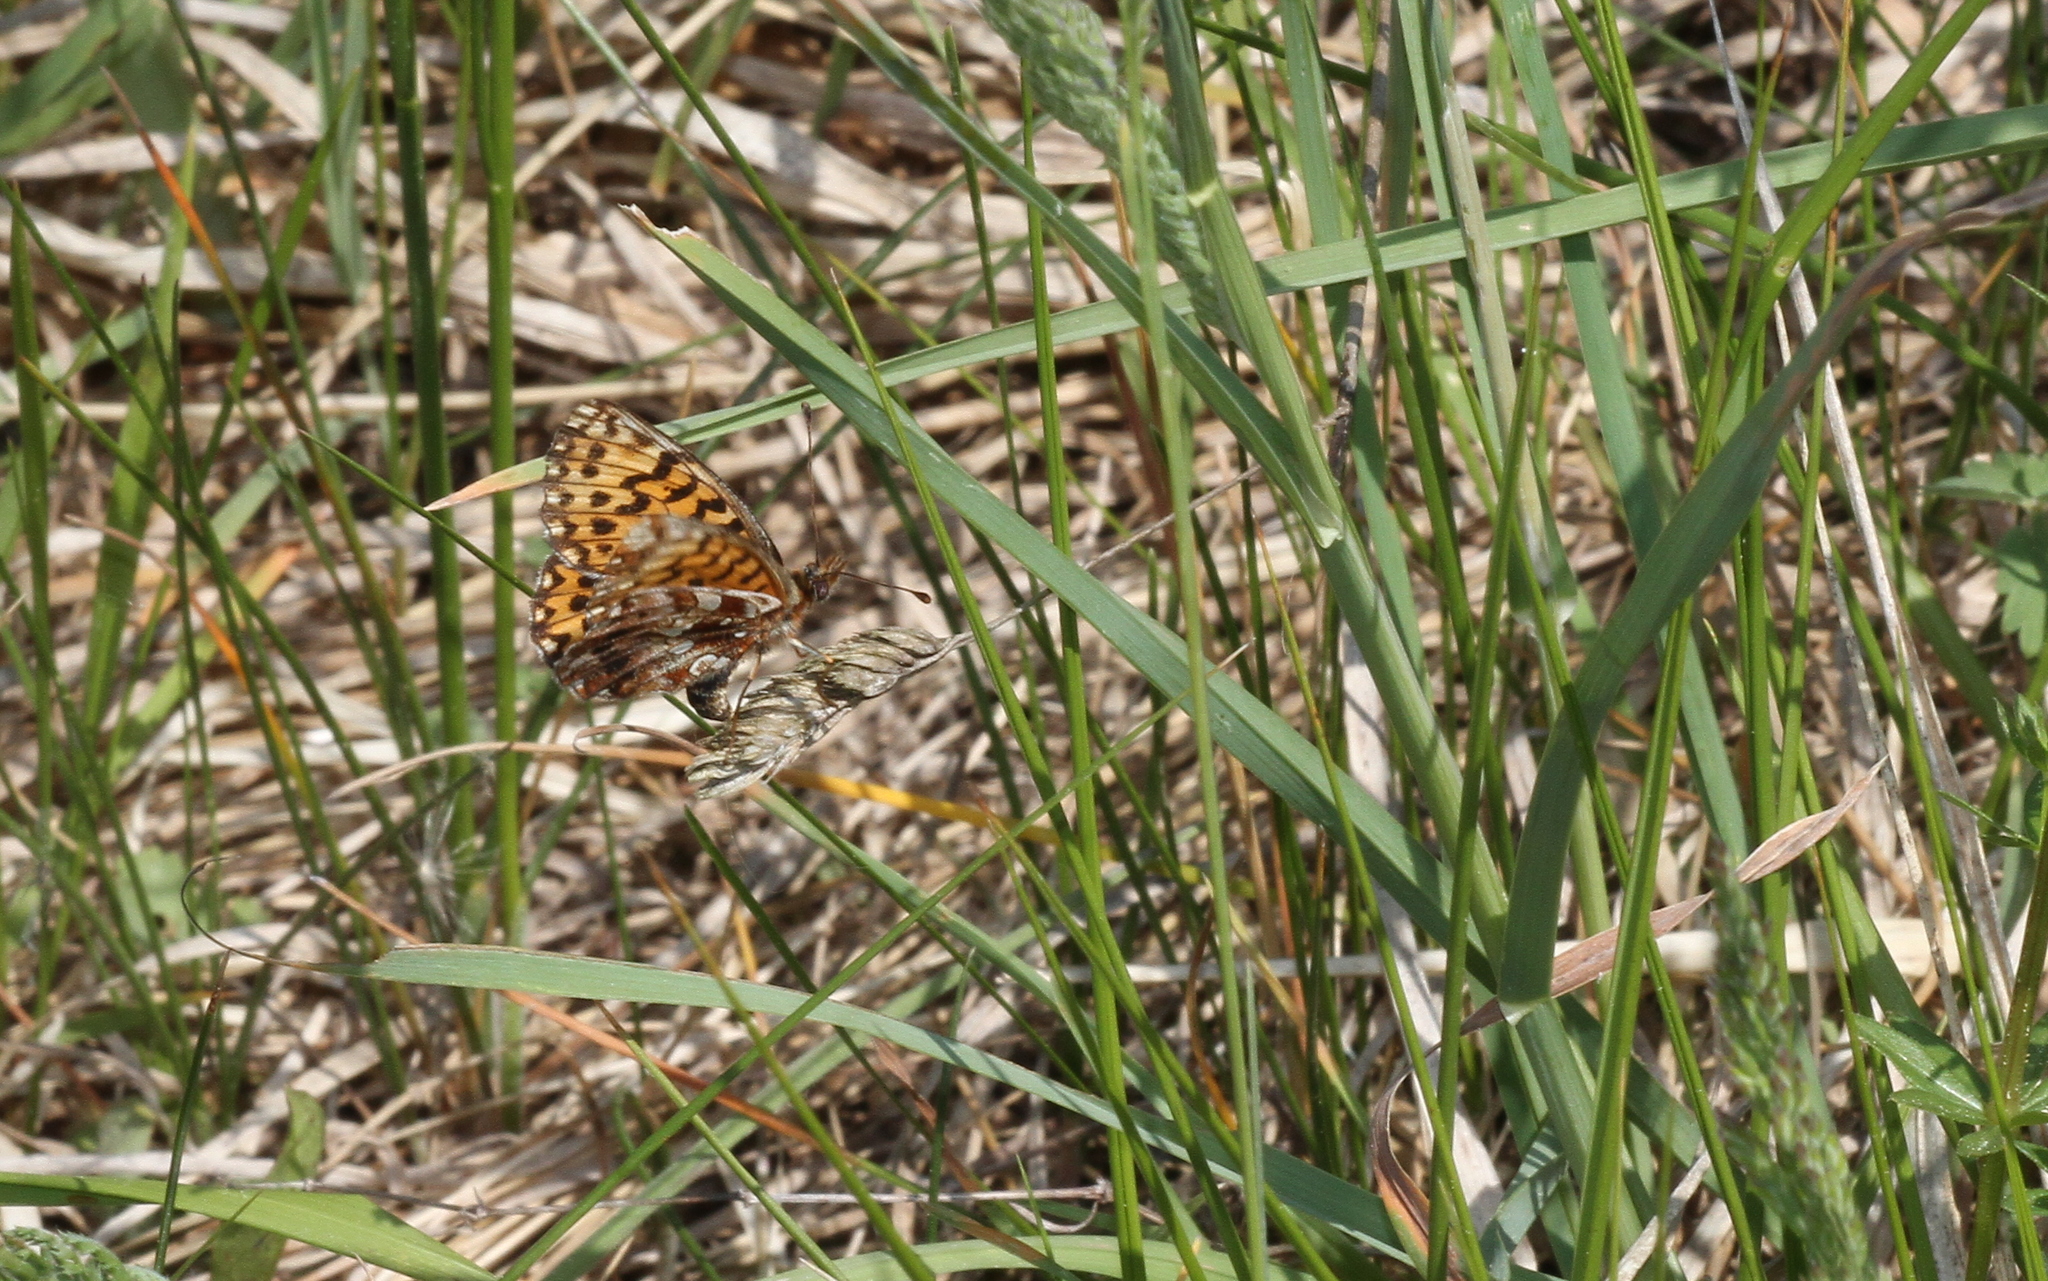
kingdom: Animalia
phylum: Arthropoda
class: Insecta
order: Lepidoptera
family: Nymphalidae
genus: Boloria
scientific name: Boloria dia
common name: Weaver's fritillary
